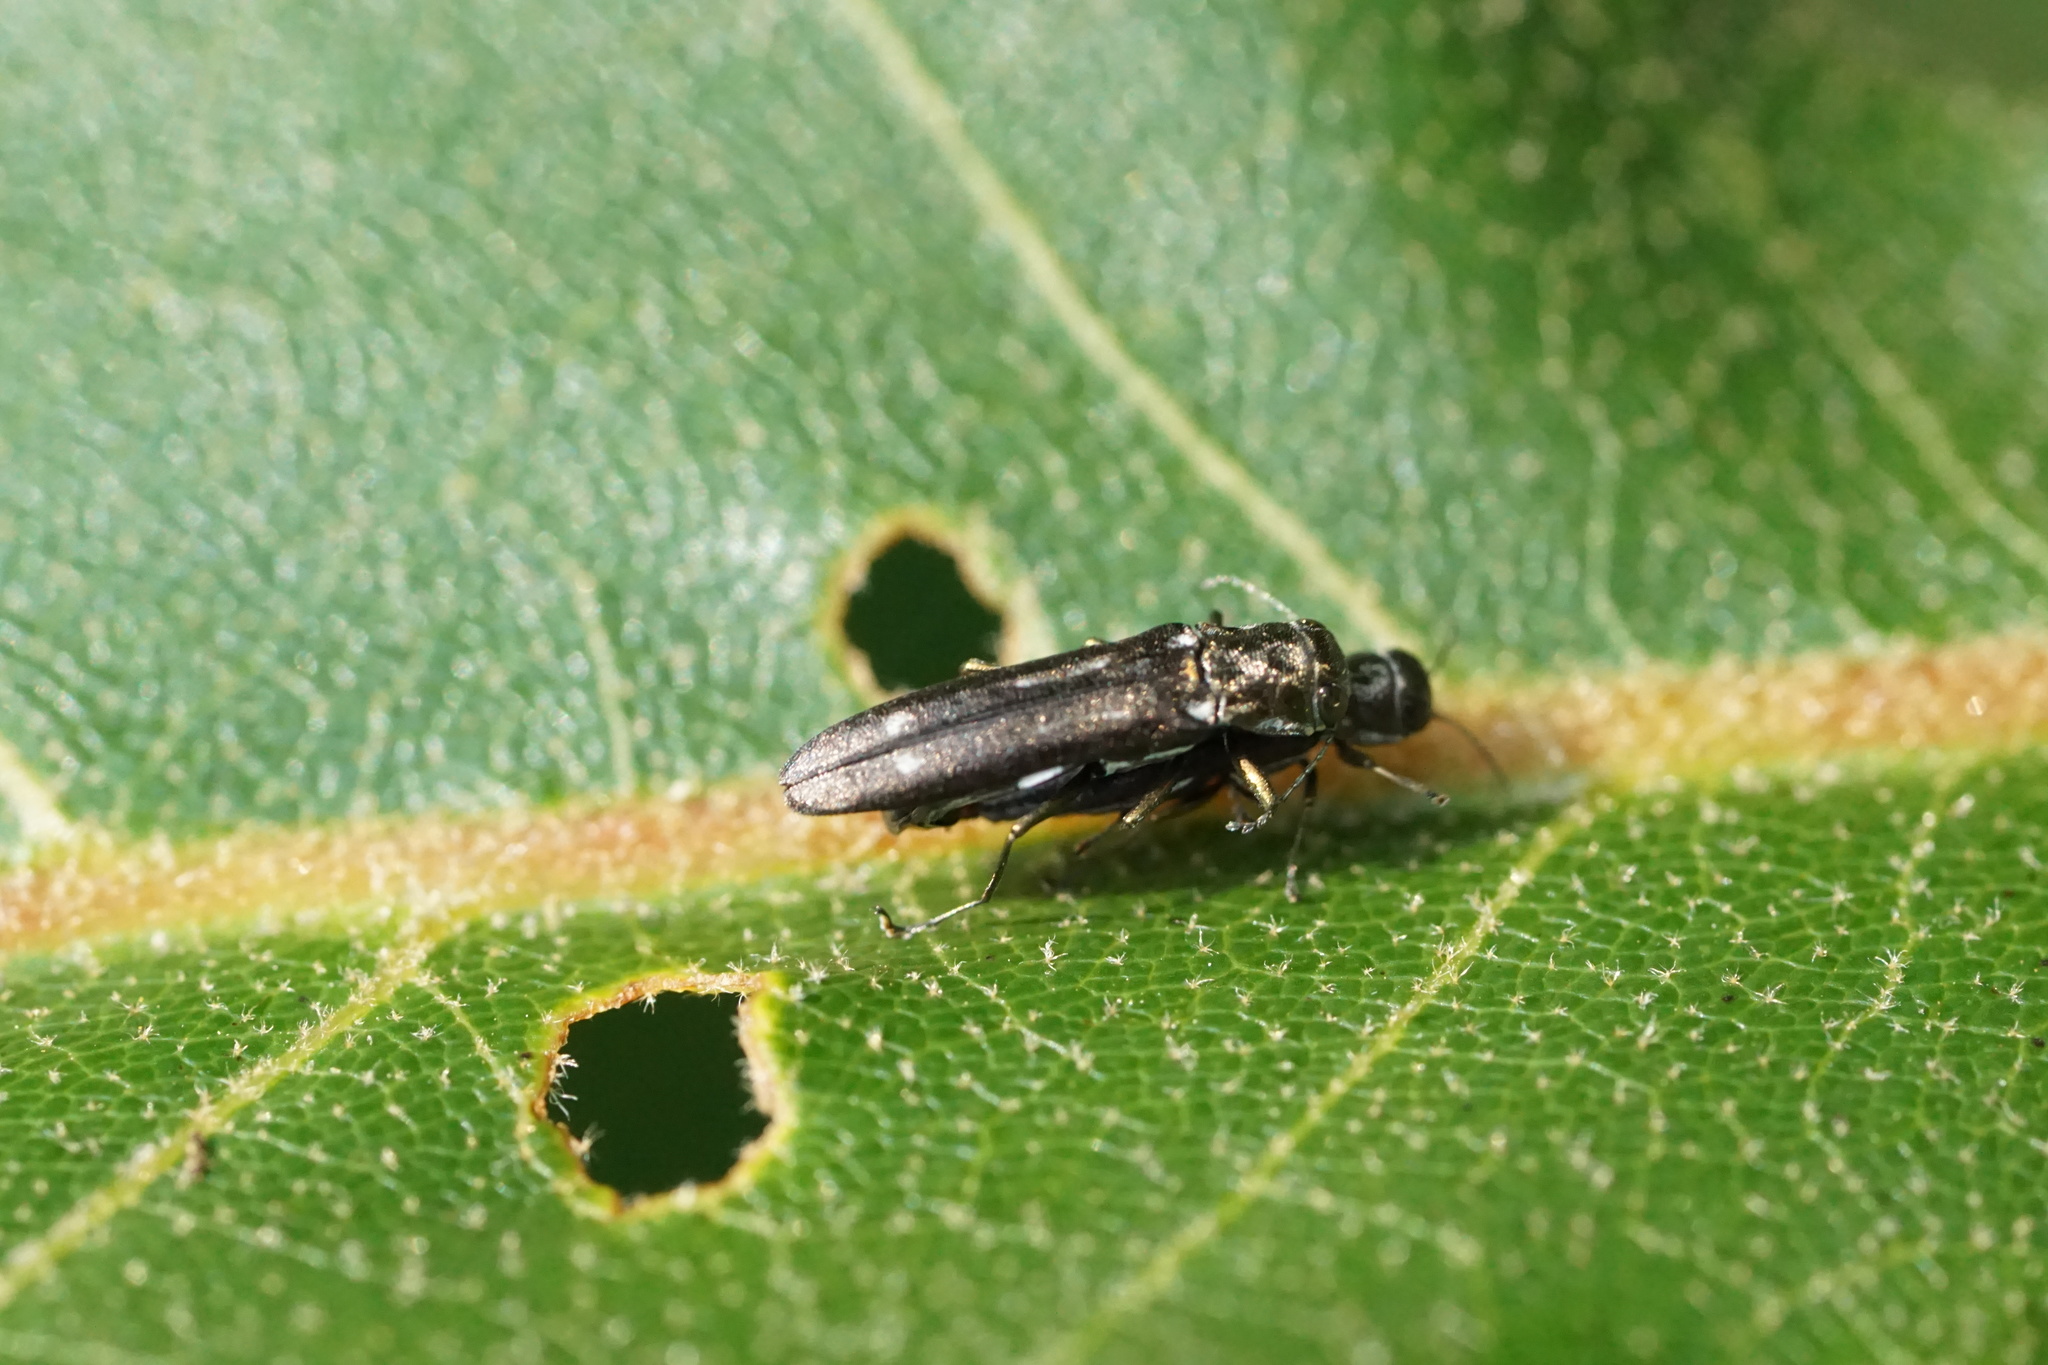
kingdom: Animalia
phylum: Arthropoda
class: Insecta
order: Coleoptera
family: Buprestidae
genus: Agrilus
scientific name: Agrilus obsoletoguttatus
